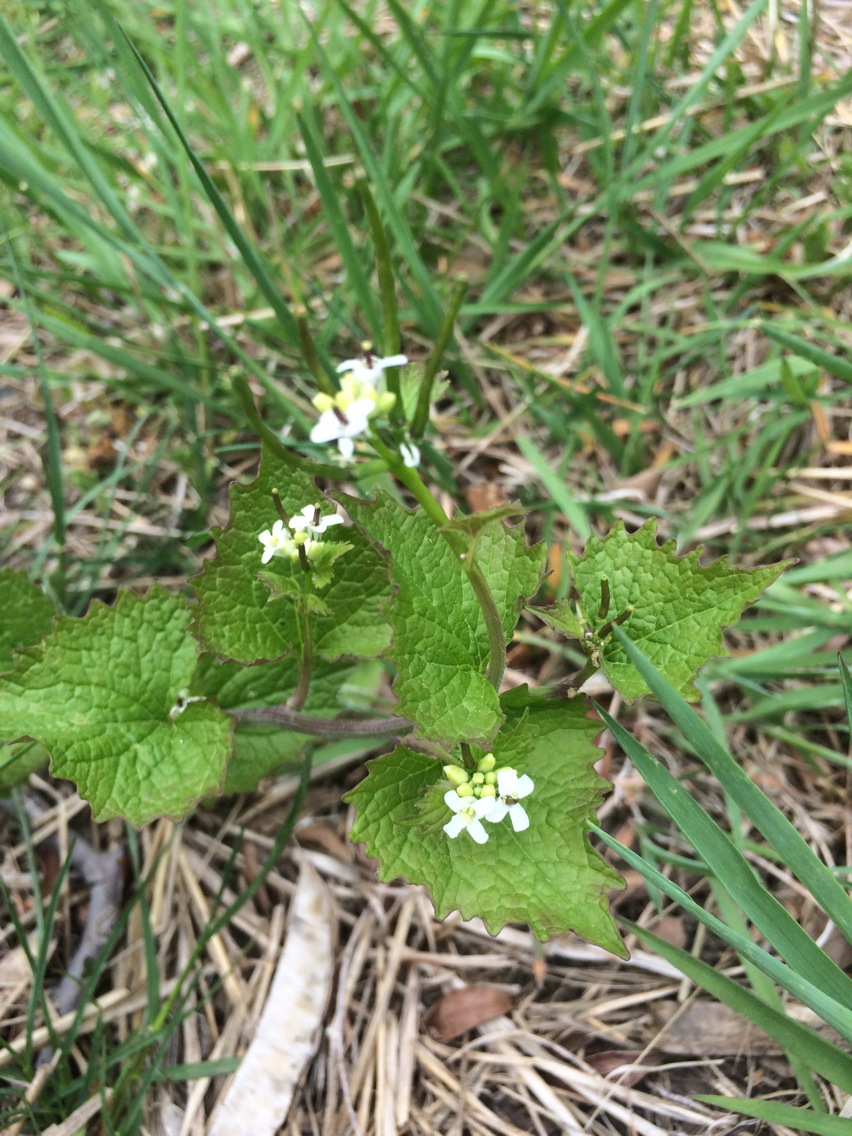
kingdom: Plantae
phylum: Tracheophyta
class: Magnoliopsida
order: Brassicales
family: Brassicaceae
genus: Alliaria
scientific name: Alliaria petiolata
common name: Garlic mustard
